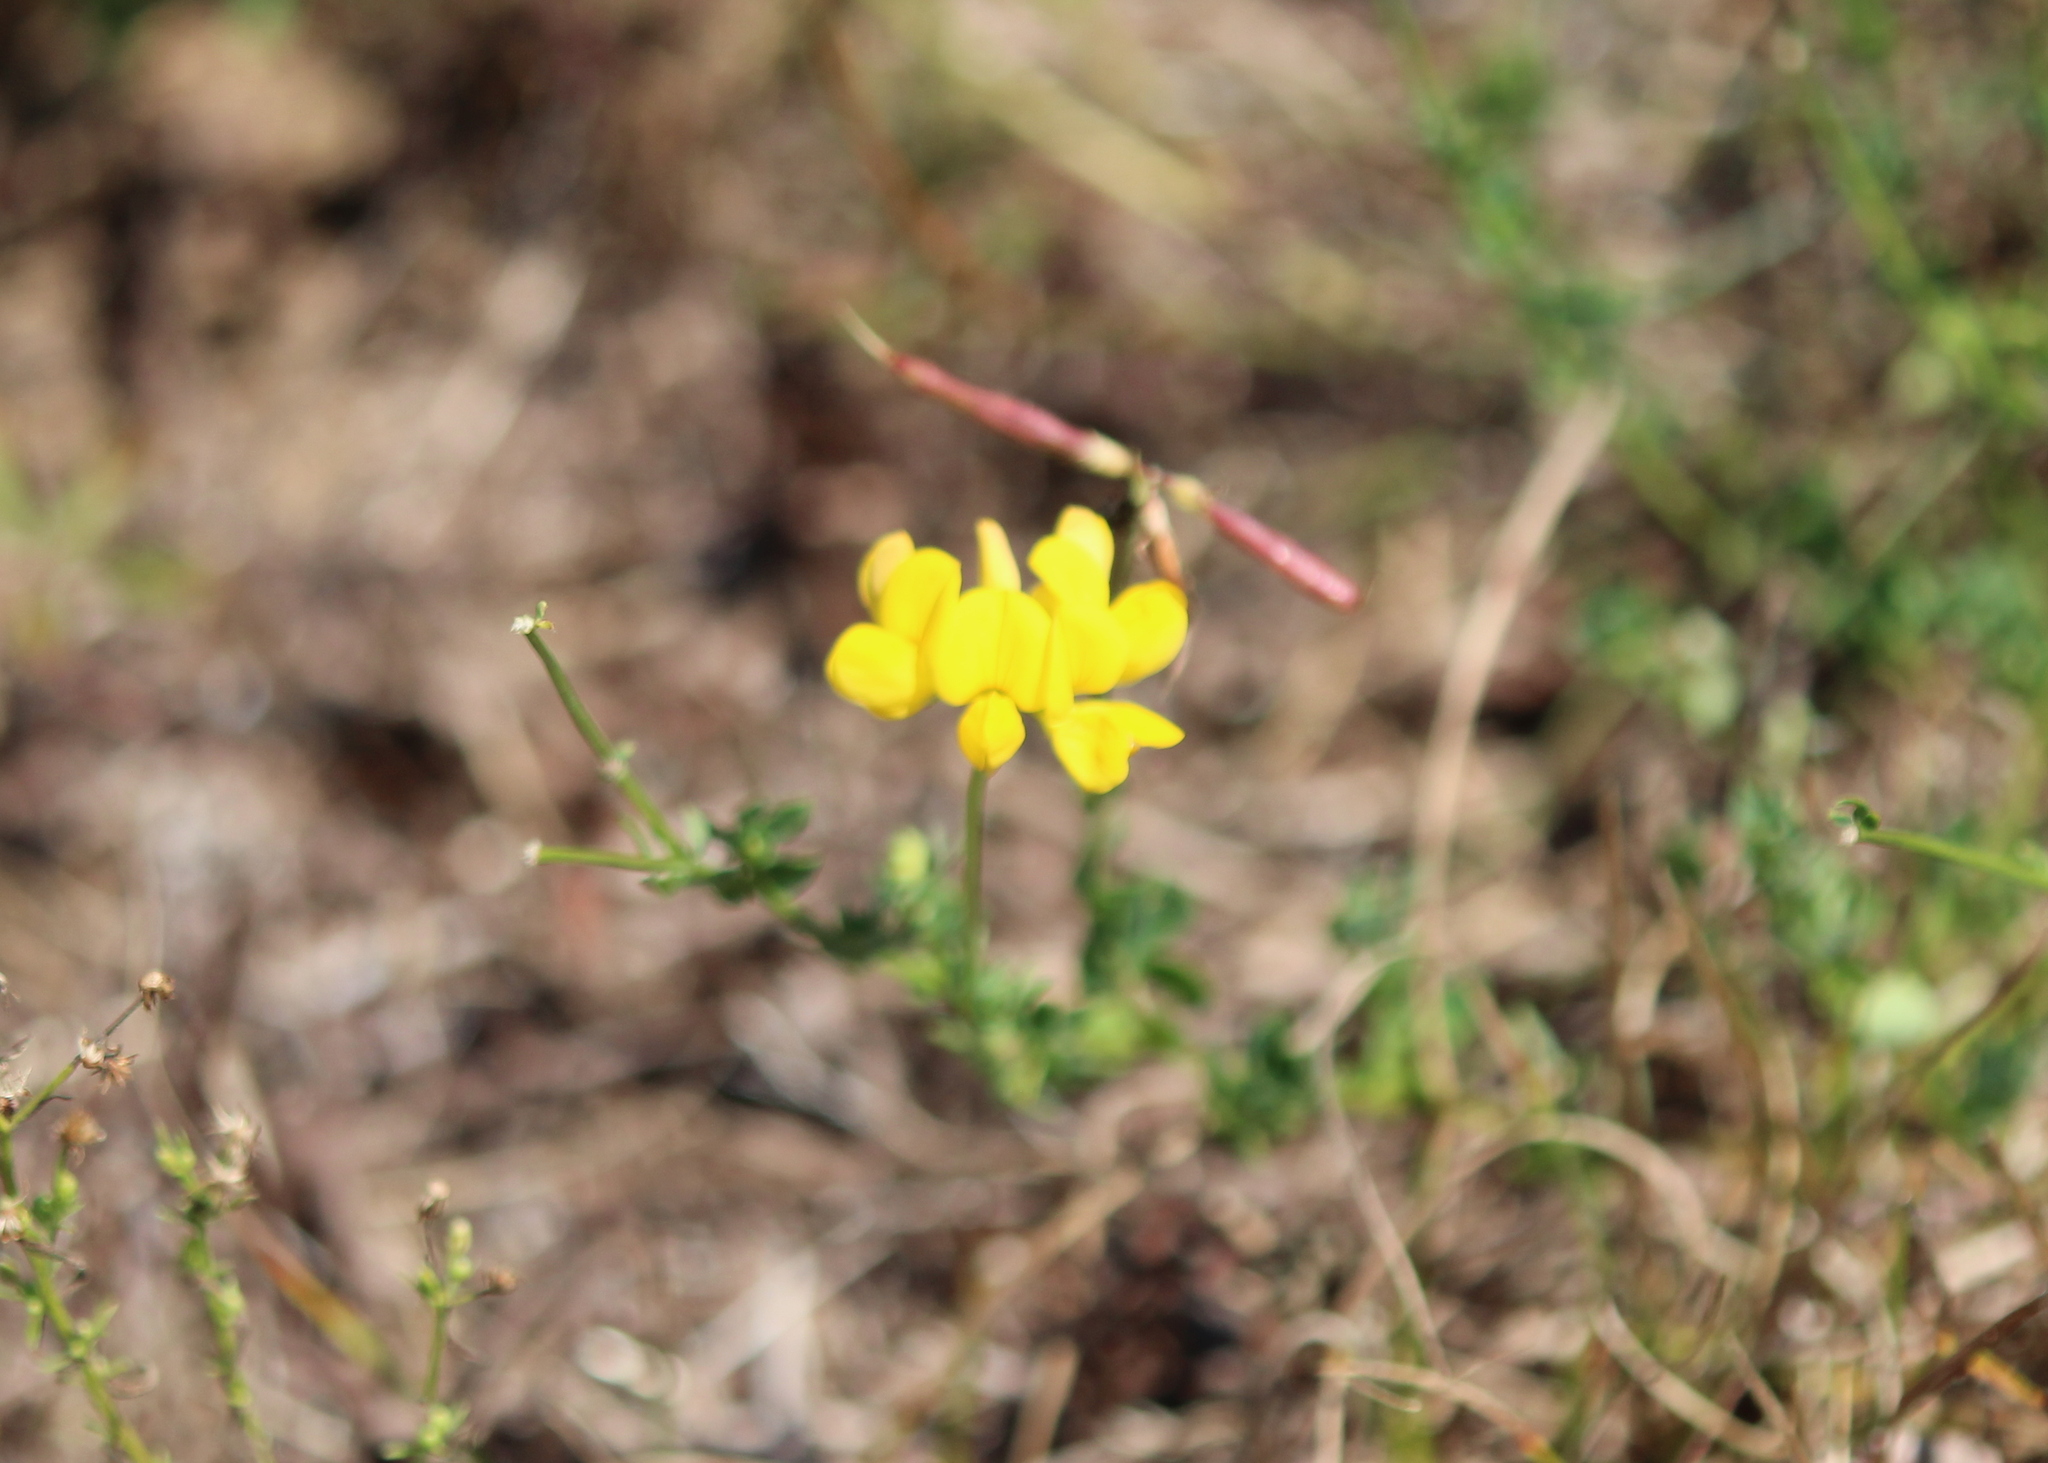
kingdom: Plantae
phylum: Tracheophyta
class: Magnoliopsida
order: Fabales
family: Fabaceae
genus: Lotus
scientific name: Lotus corniculatus
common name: Common bird's-foot-trefoil
